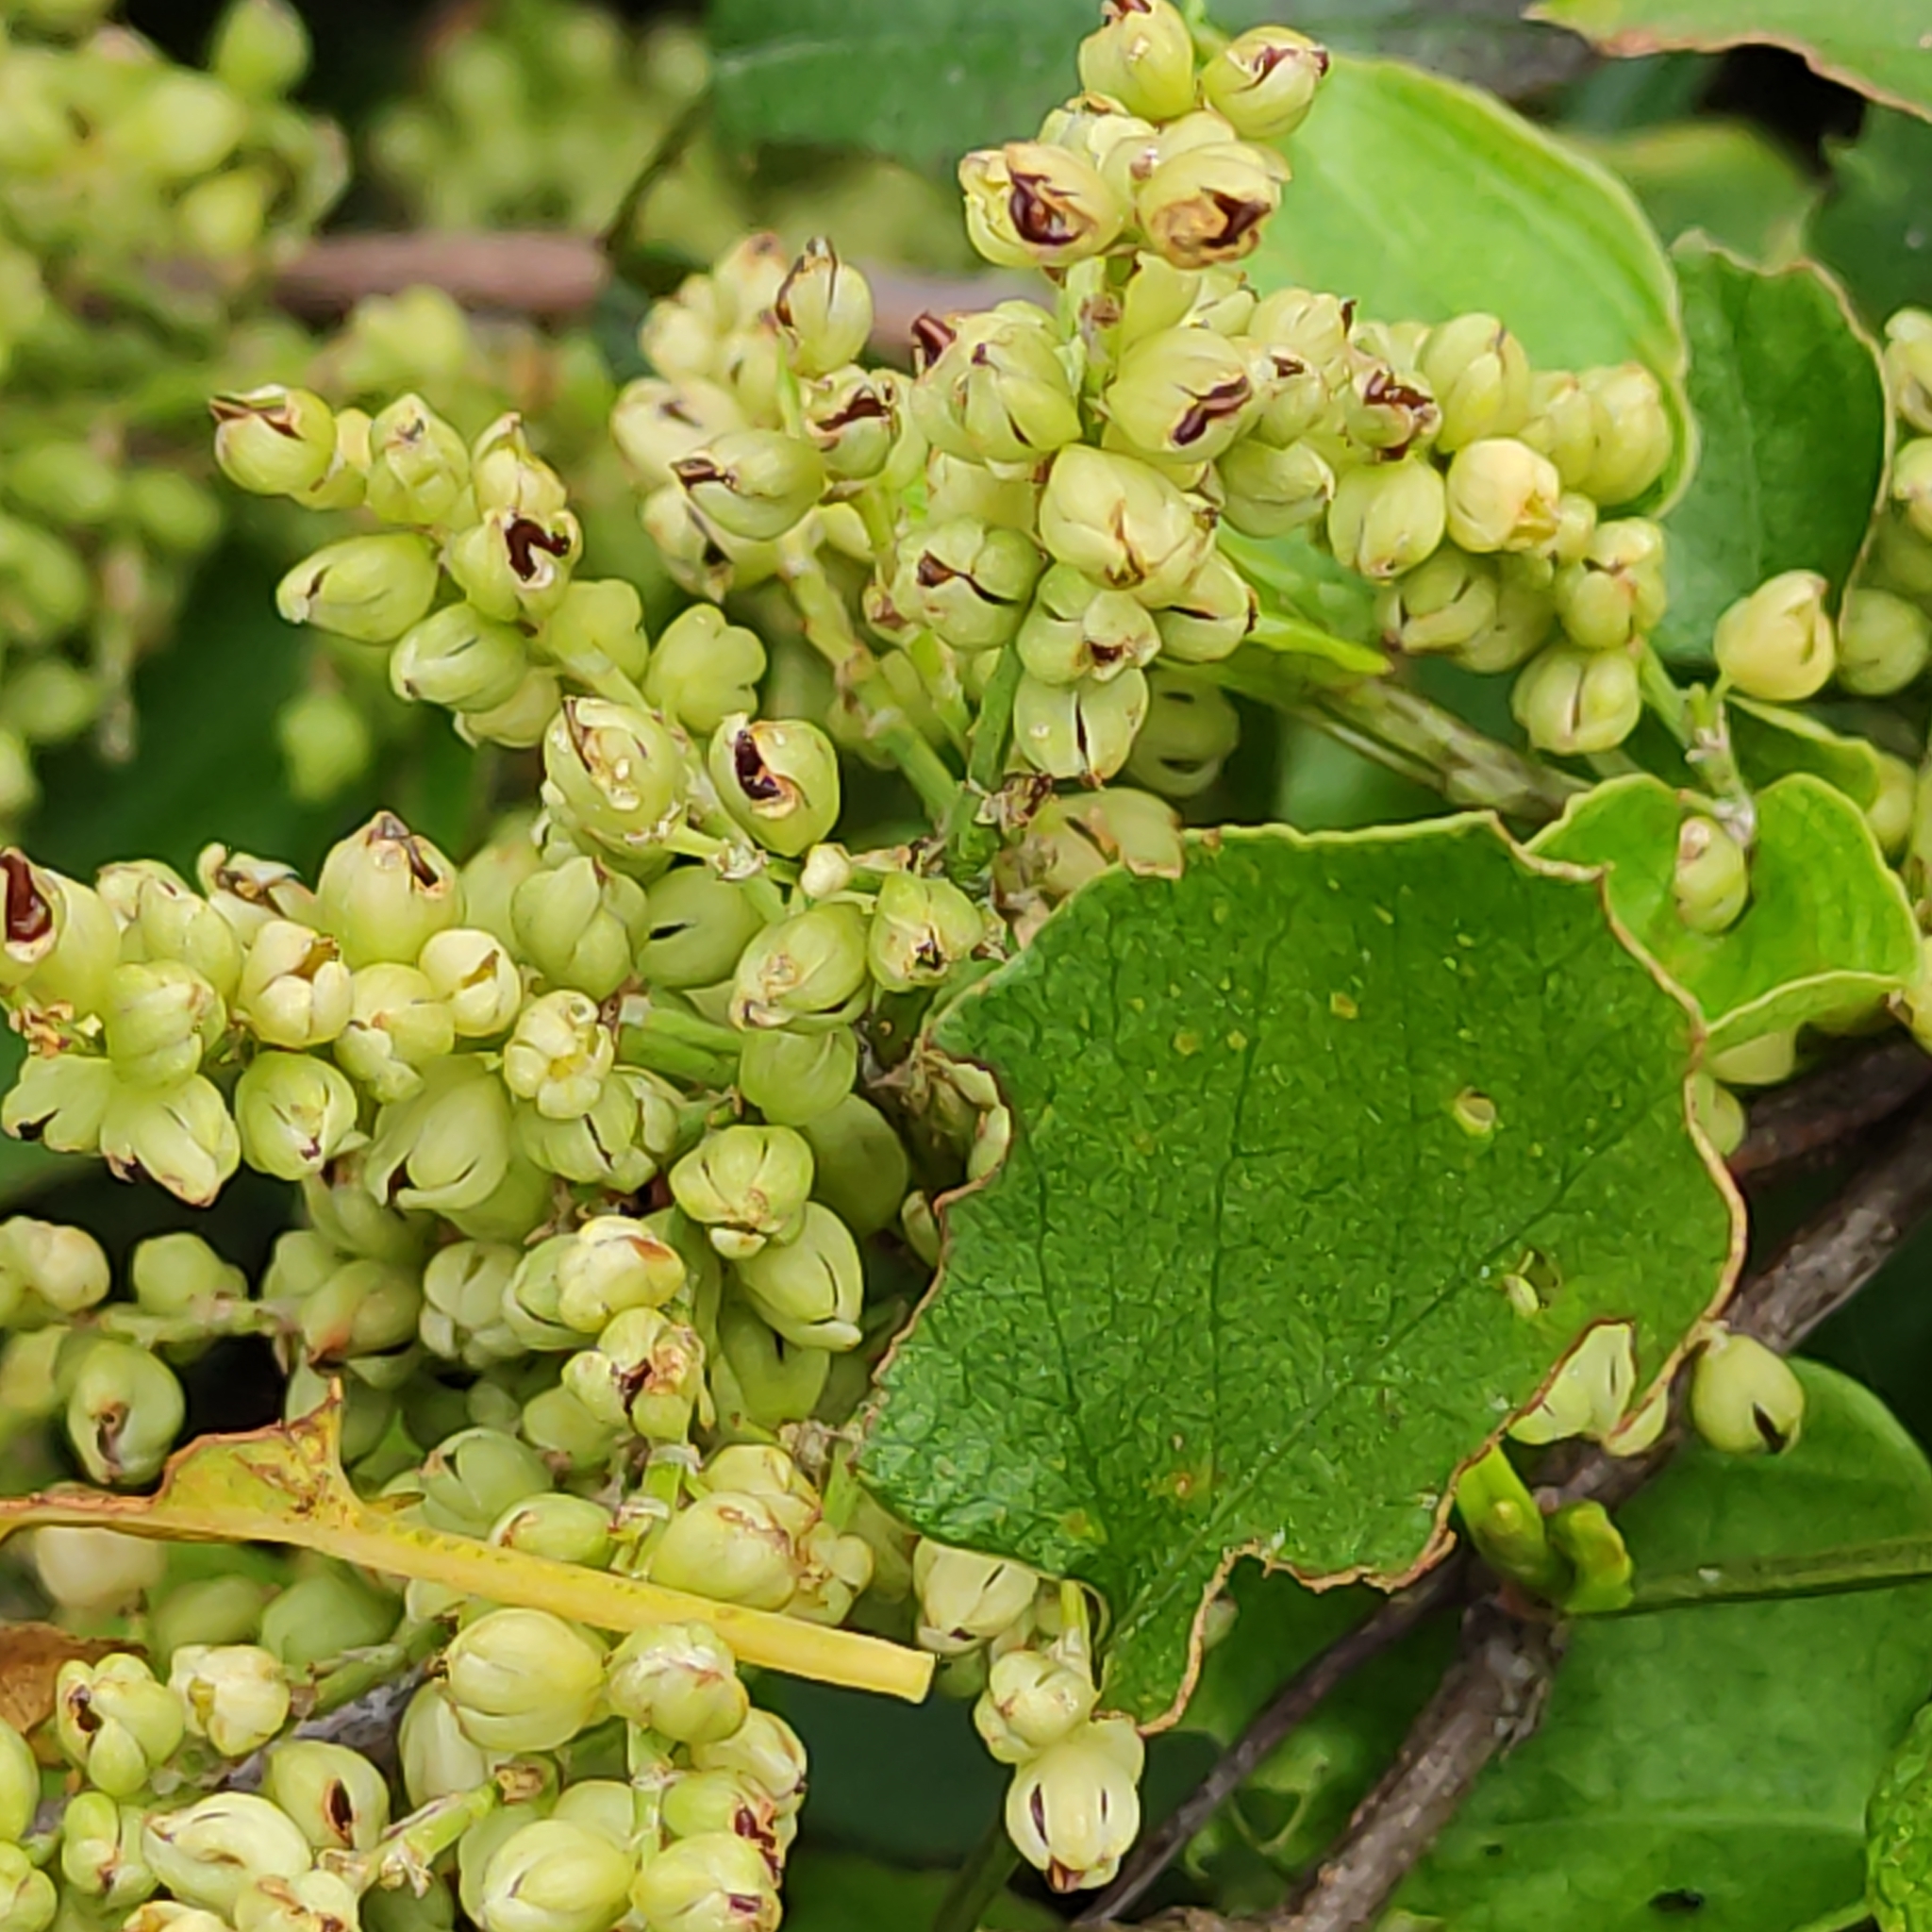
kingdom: Plantae
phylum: Tracheophyta
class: Magnoliopsida
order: Caryophyllales
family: Polygonaceae
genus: Muehlenbeckia
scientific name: Muehlenbeckia australis
